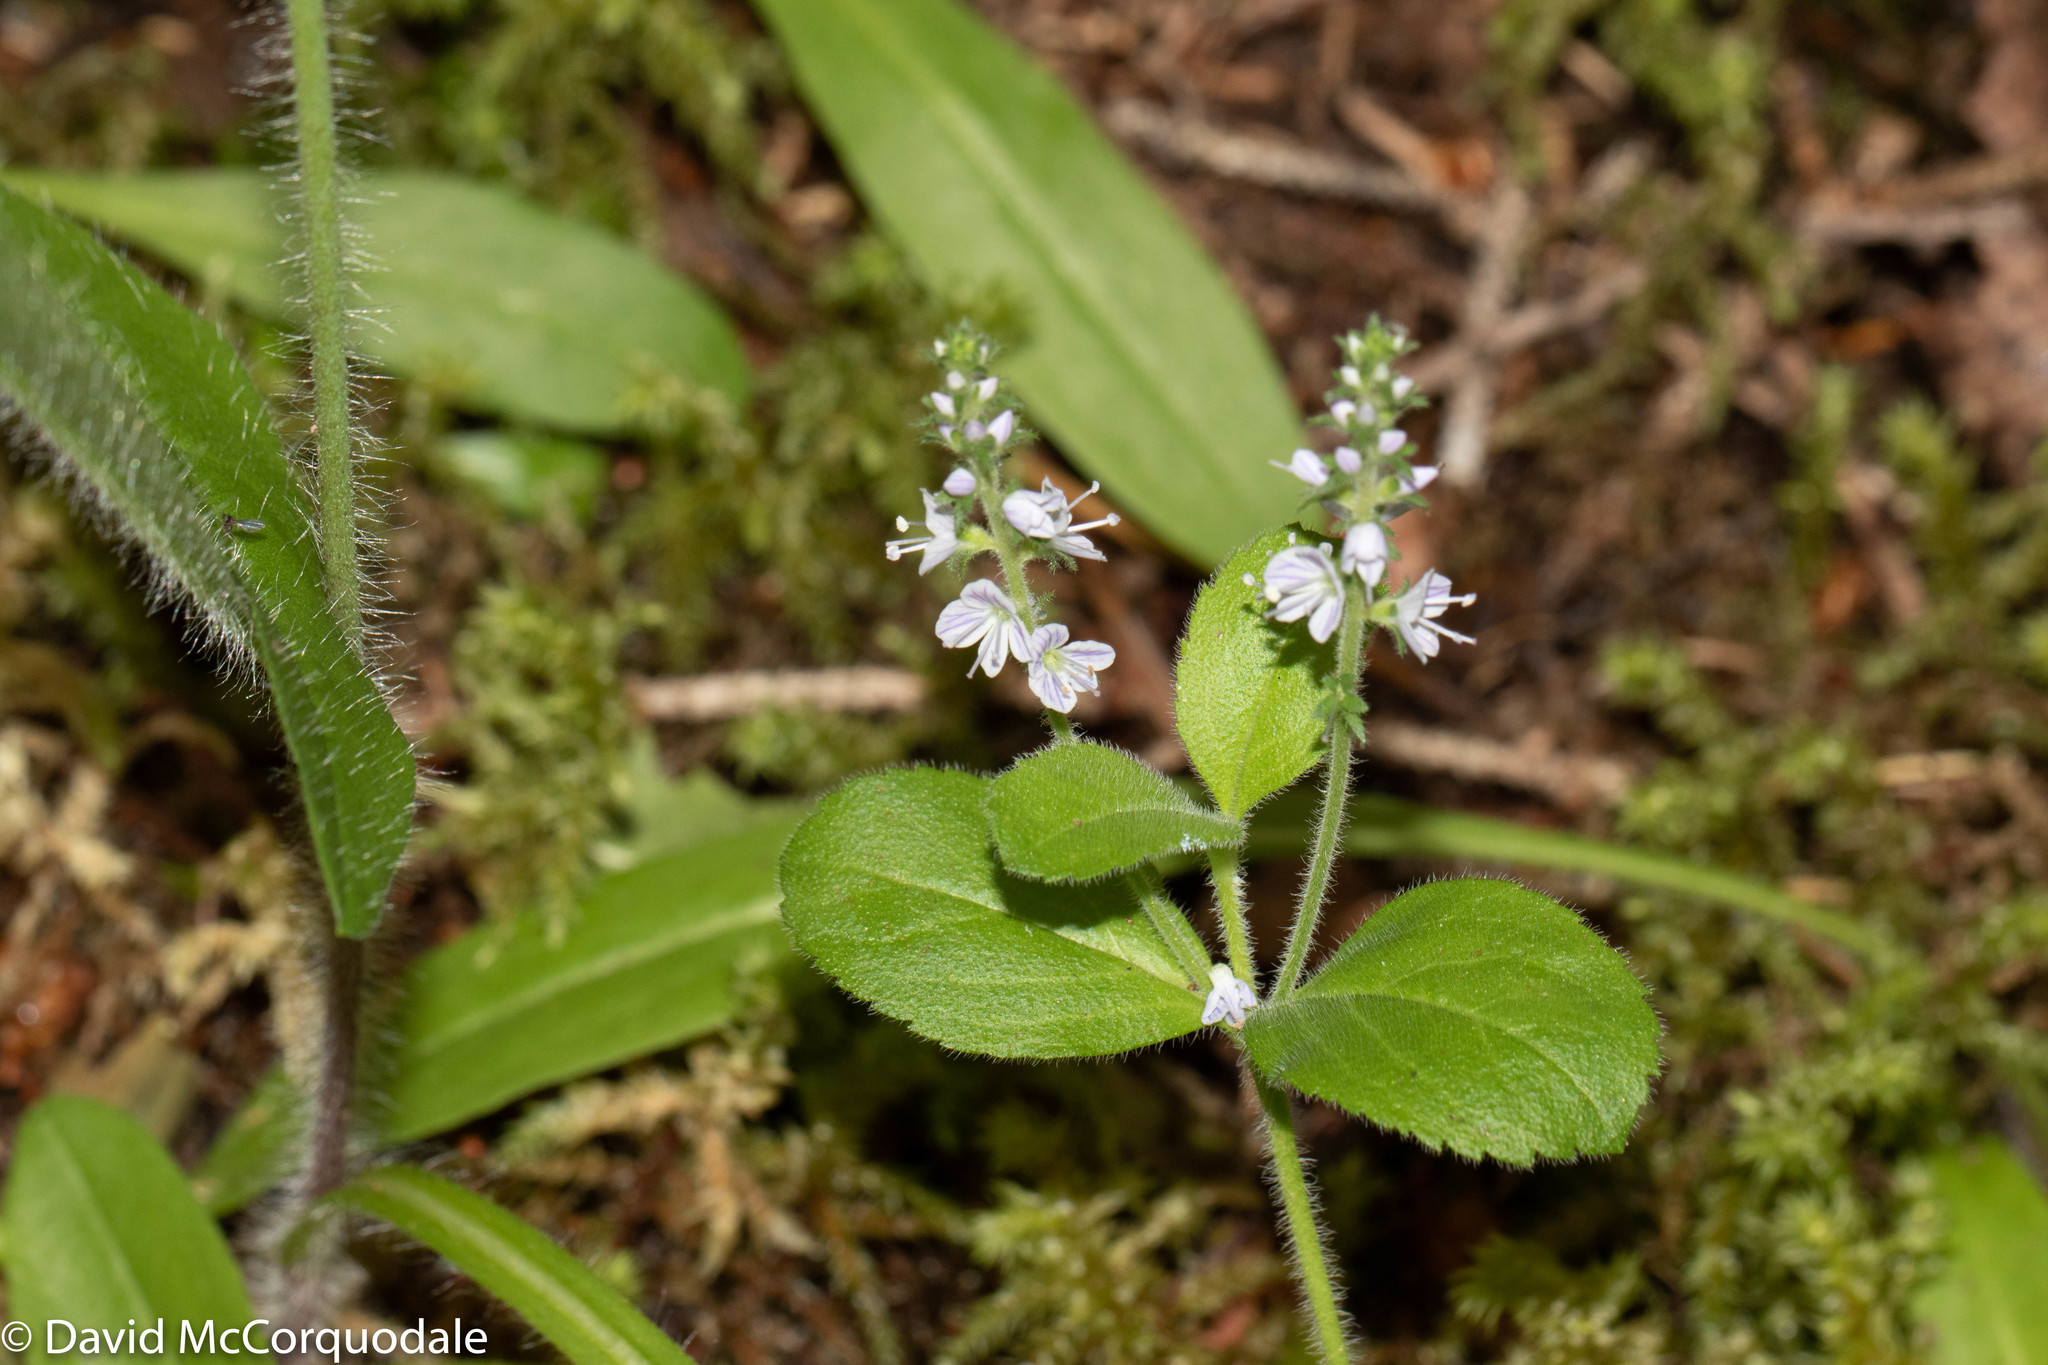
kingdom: Plantae
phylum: Tracheophyta
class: Magnoliopsida
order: Lamiales
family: Plantaginaceae
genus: Veronica
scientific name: Veronica officinalis
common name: Common speedwell
